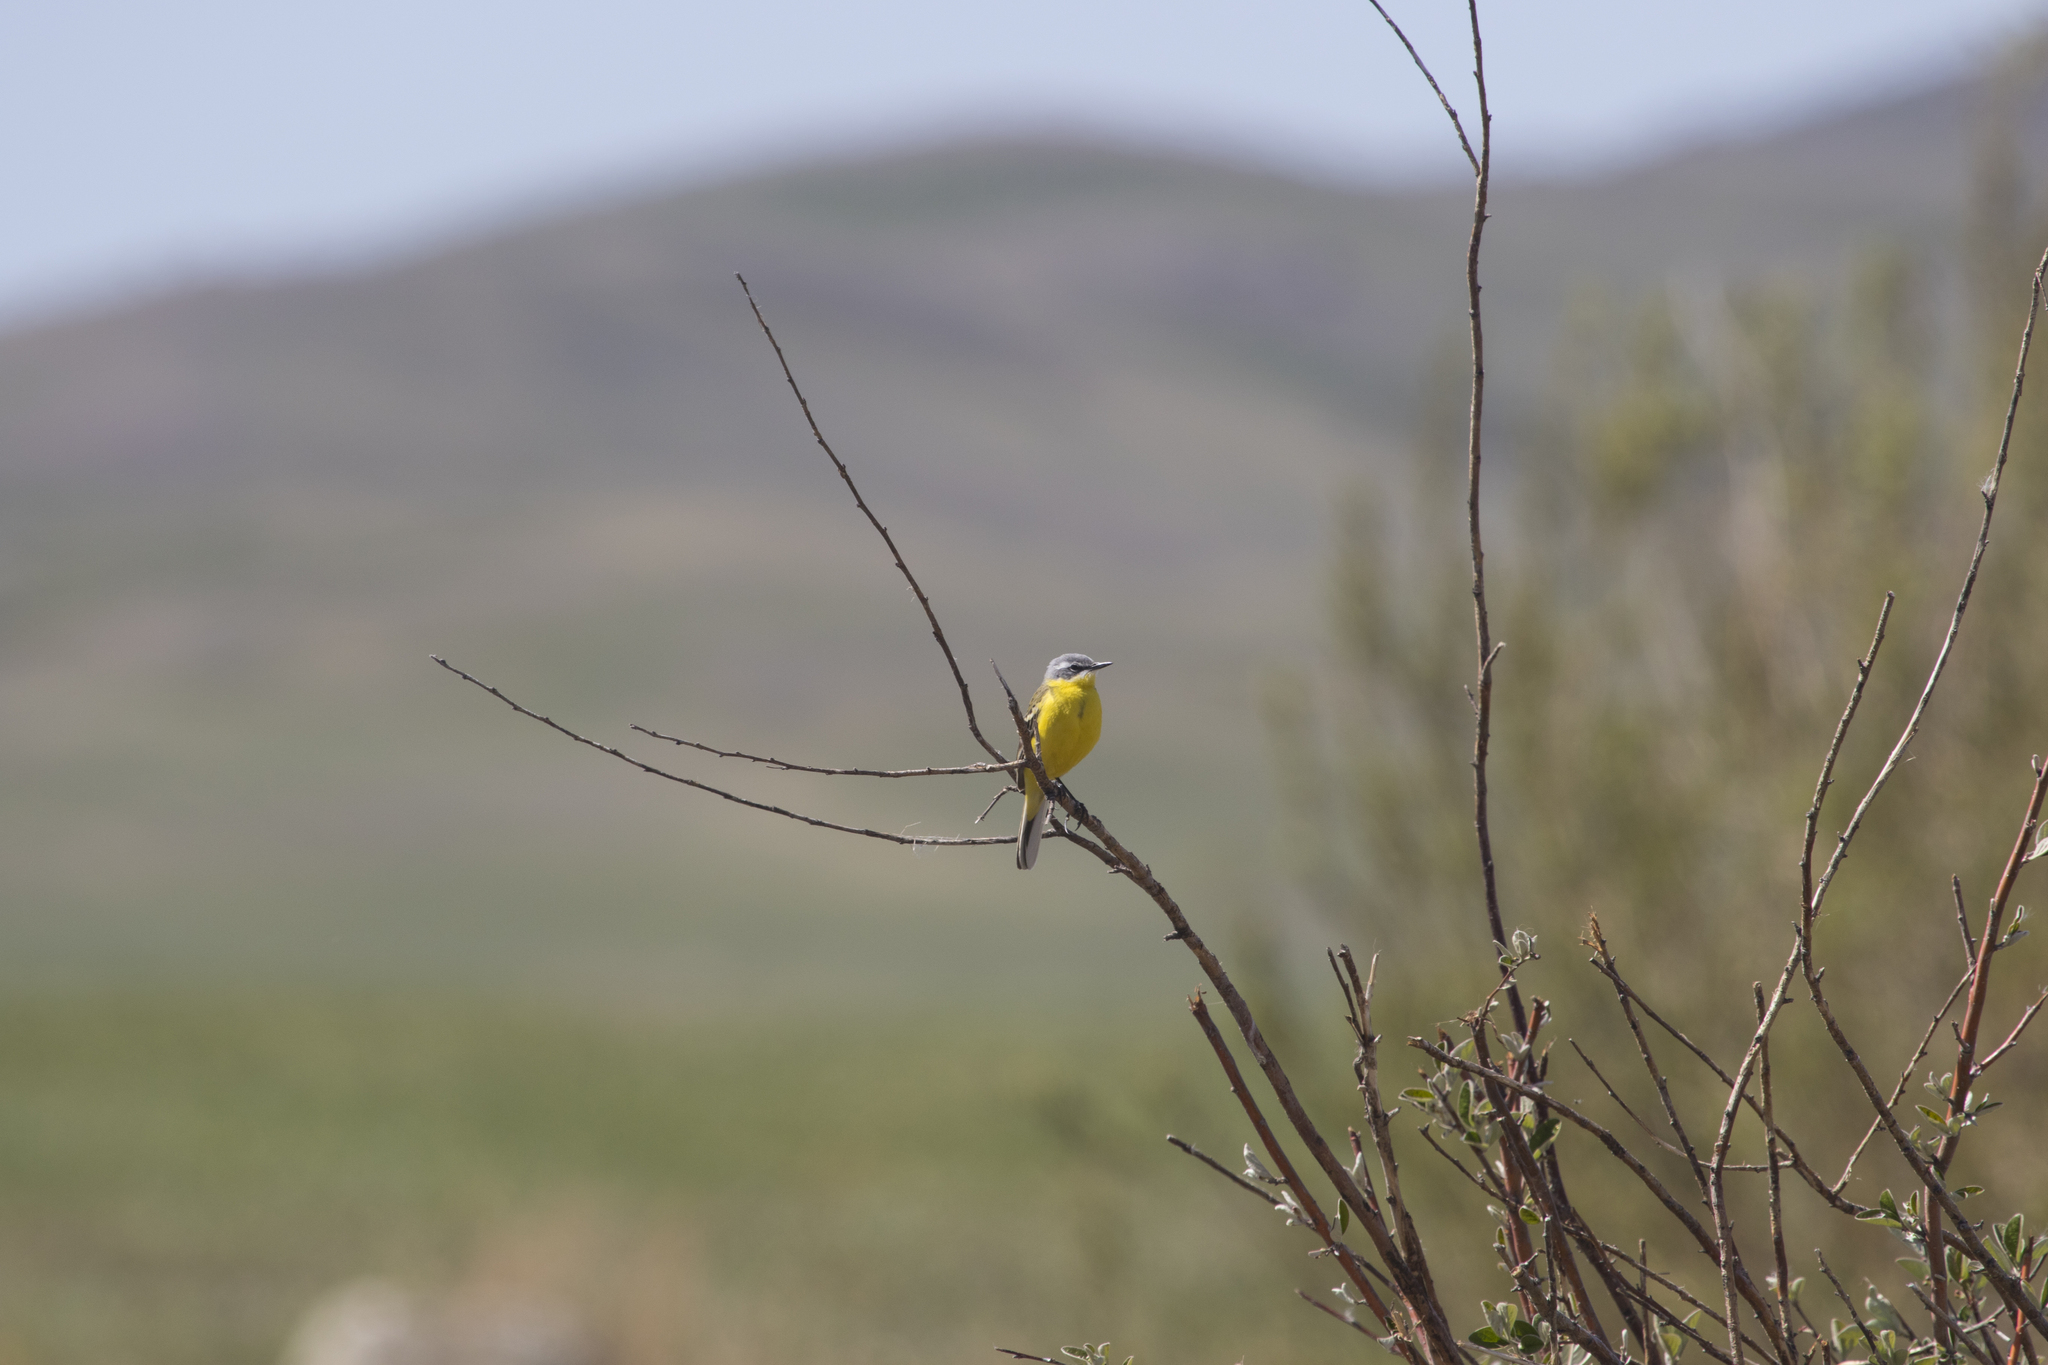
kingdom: Animalia
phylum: Chordata
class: Aves
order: Passeriformes
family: Motacillidae
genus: Motacilla
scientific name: Motacilla flava
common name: Western yellow wagtail
